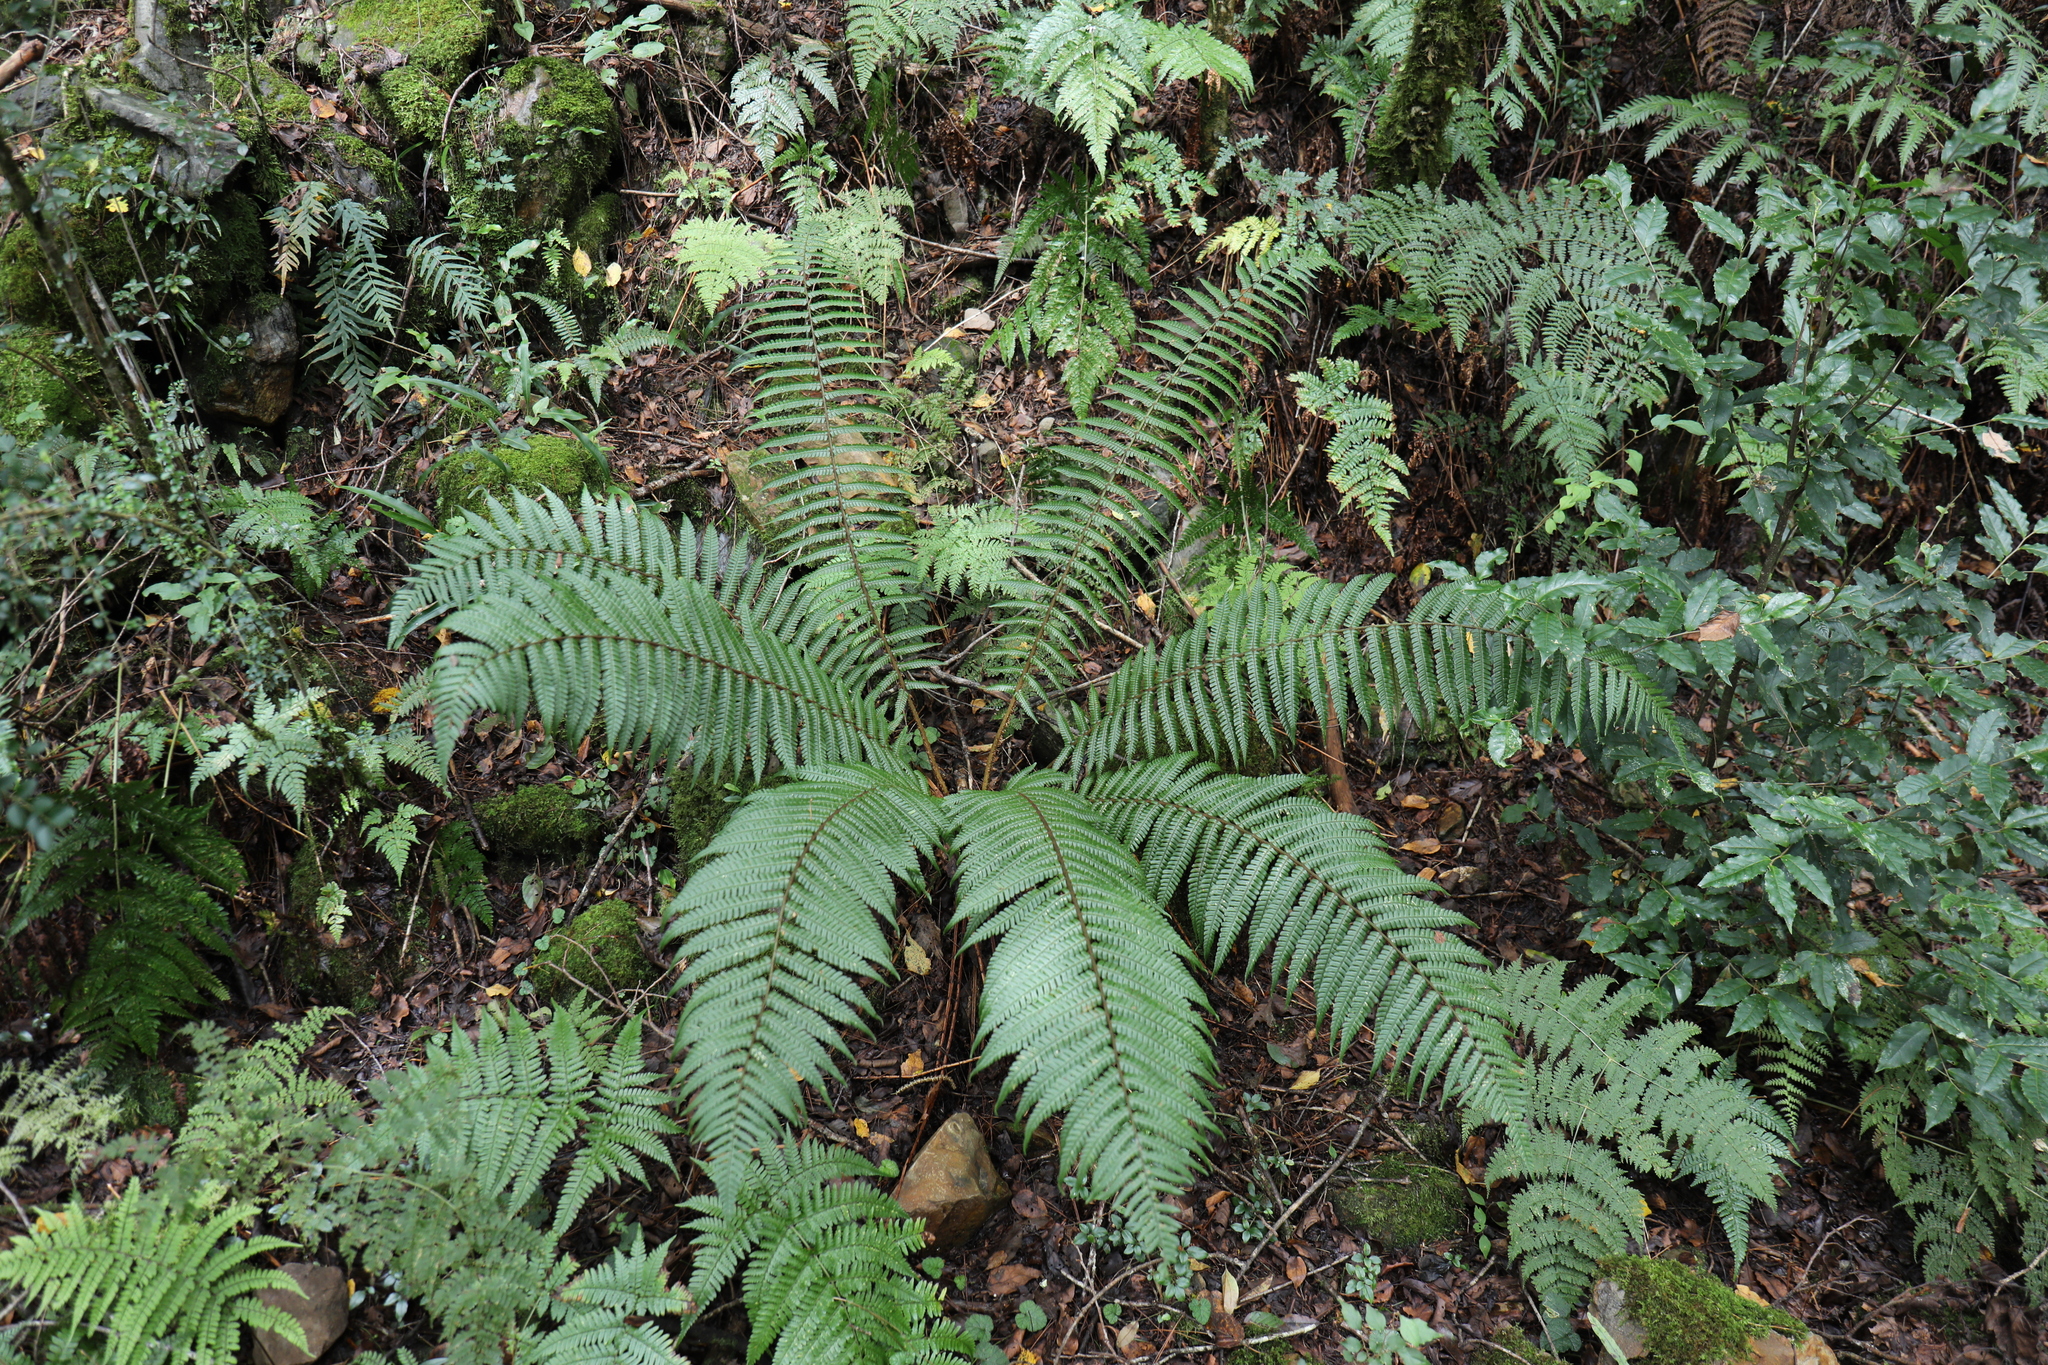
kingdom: Plantae
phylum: Tracheophyta
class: Polypodiopsida
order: Polypodiales
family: Dryopteridaceae
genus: Dryopteris
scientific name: Dryopteris wallichiana
